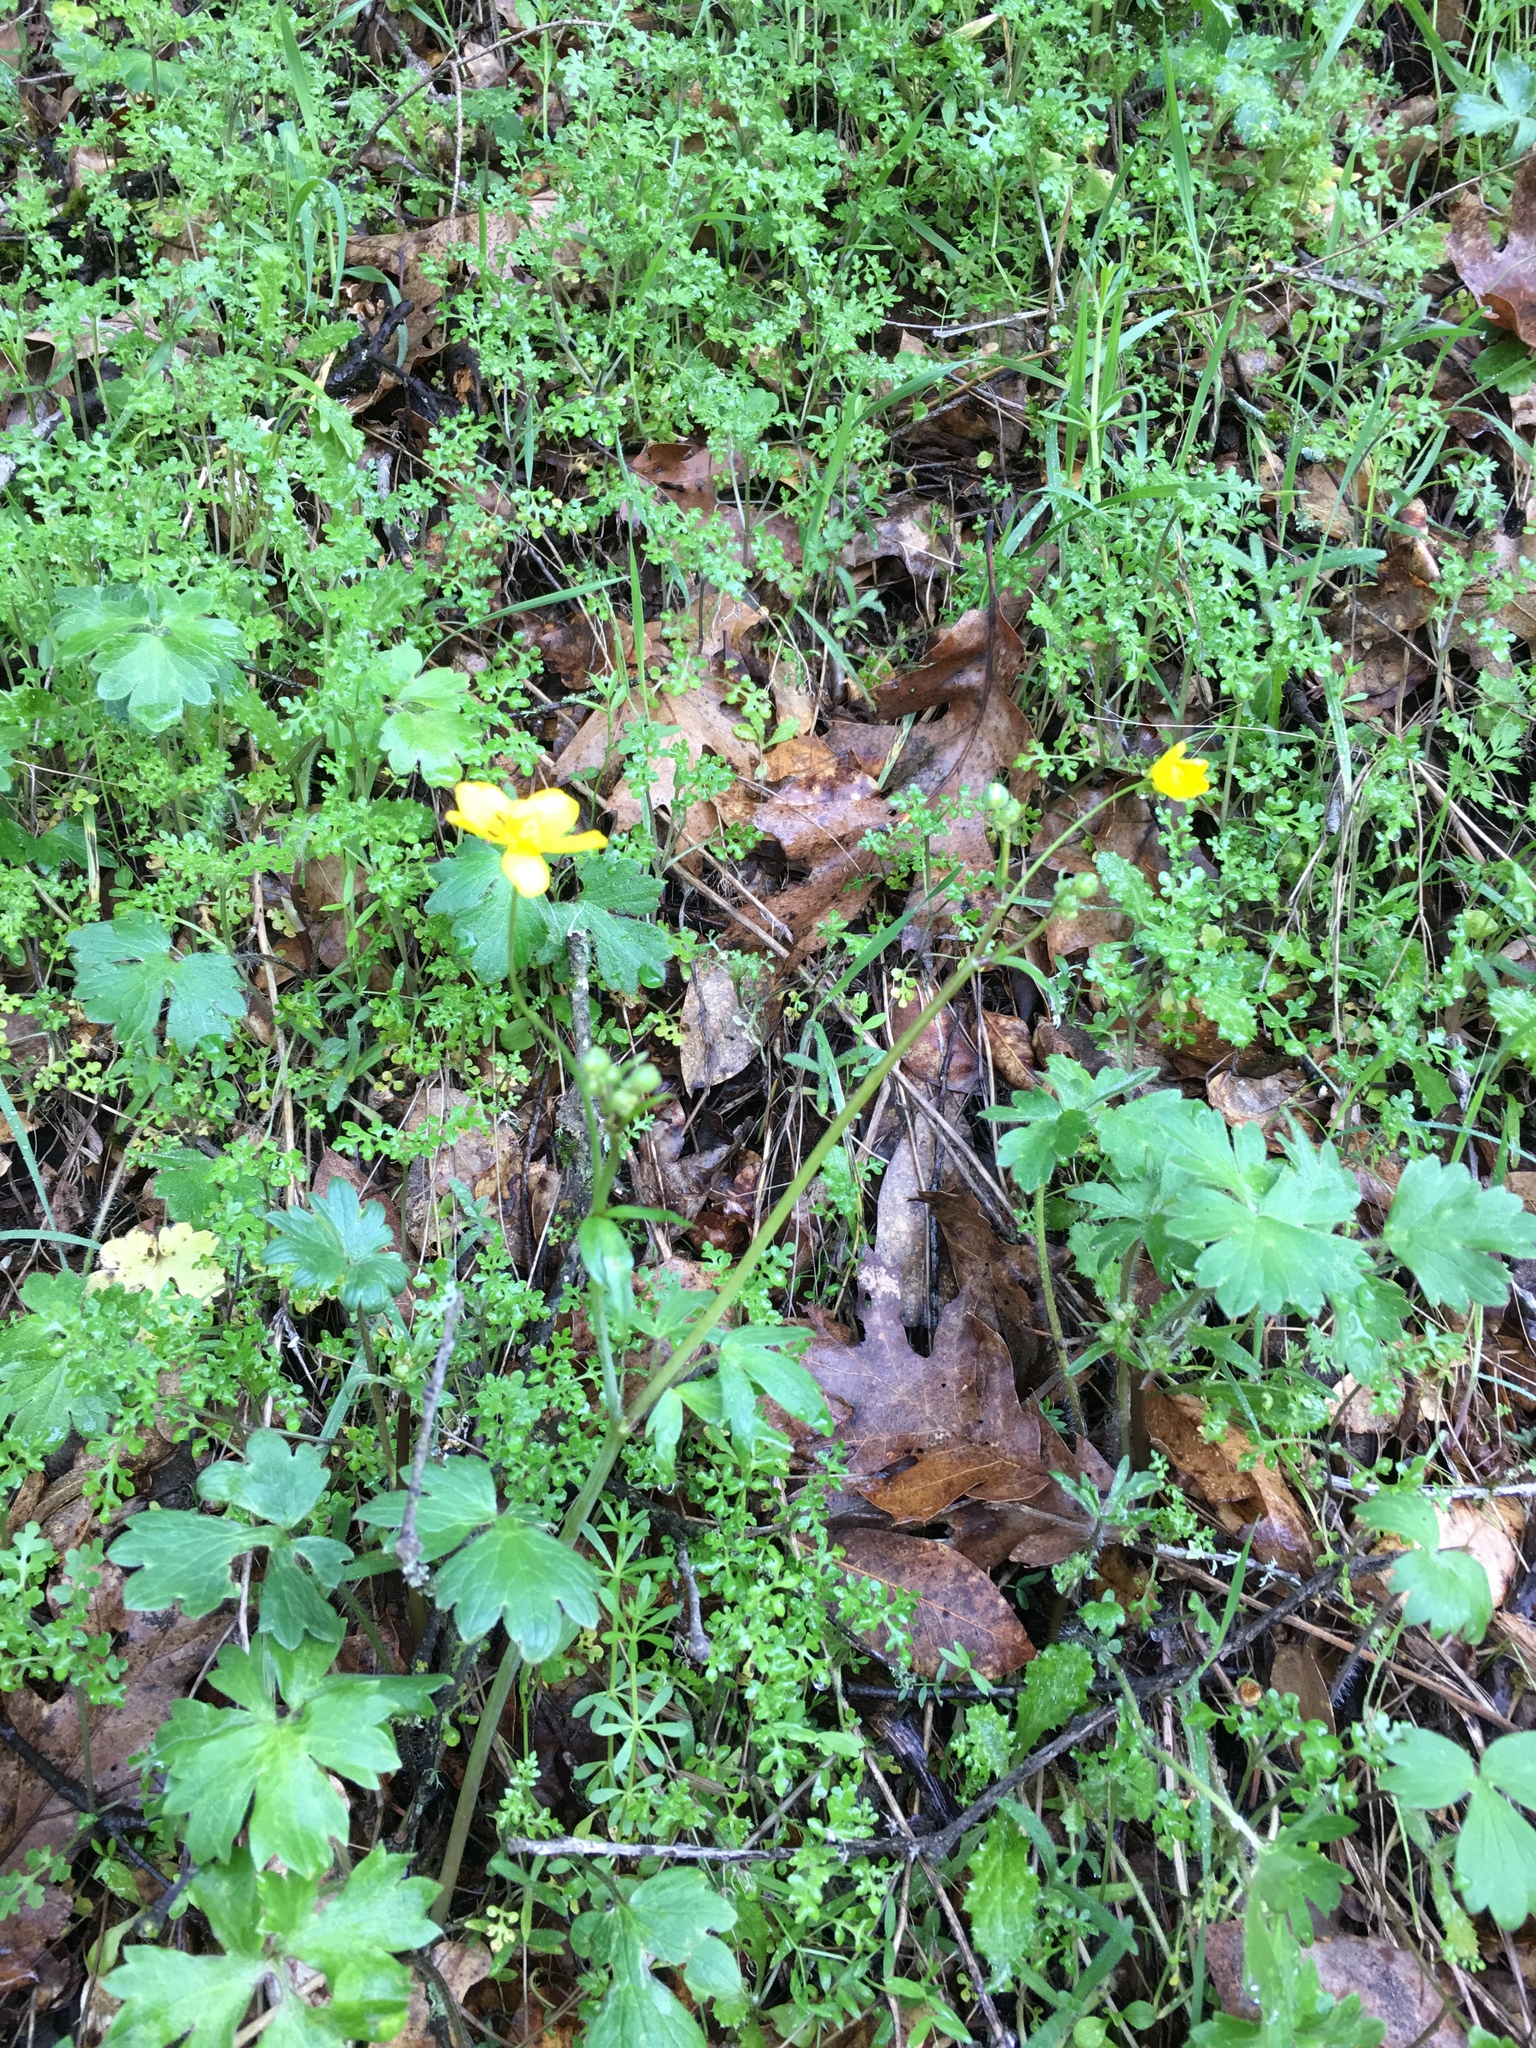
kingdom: Plantae
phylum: Tracheophyta
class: Magnoliopsida
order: Ranunculales
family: Ranunculaceae
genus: Ranunculus
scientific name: Ranunculus occidentalis
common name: Western buttercup
